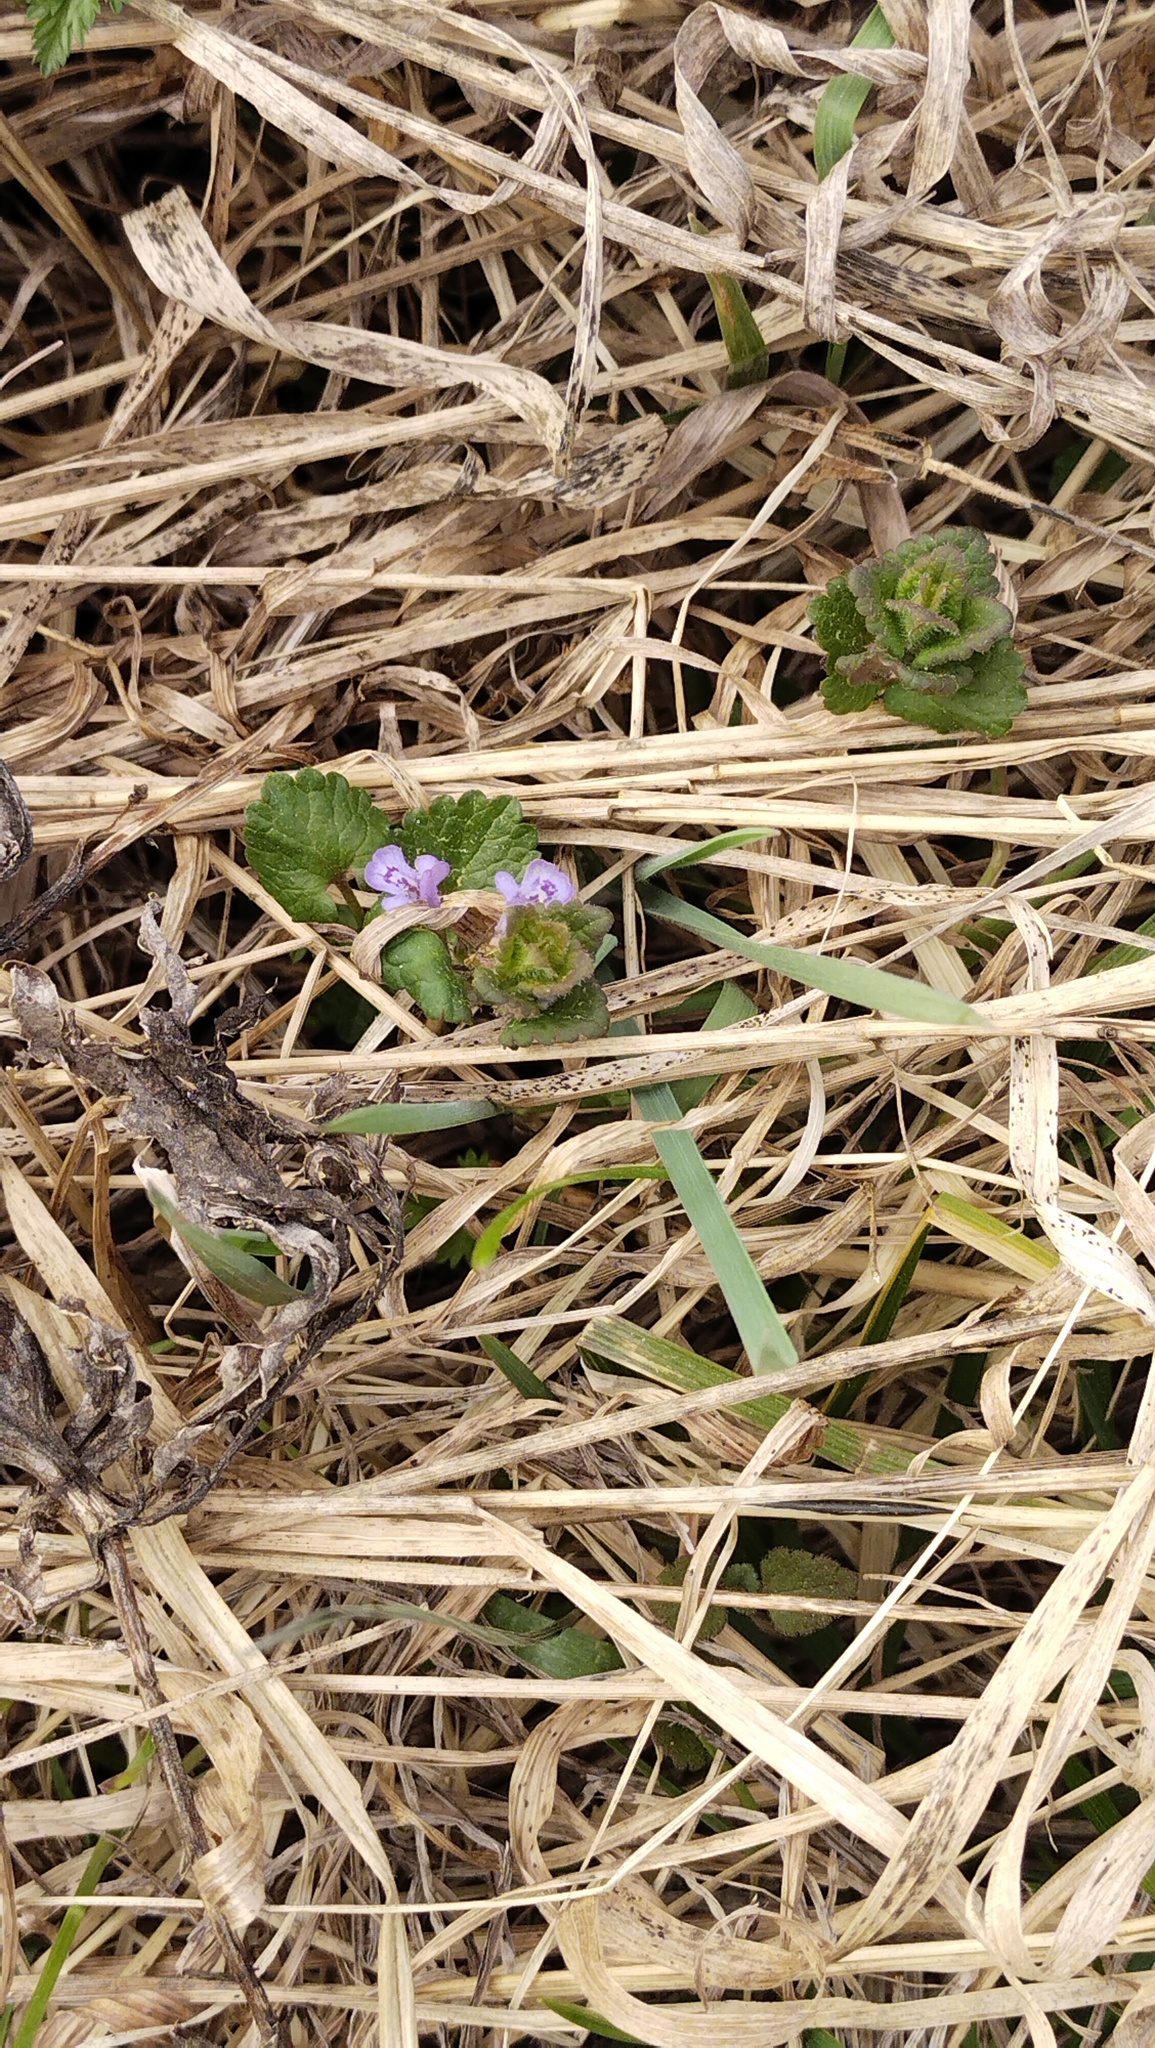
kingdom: Plantae
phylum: Tracheophyta
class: Magnoliopsida
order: Lamiales
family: Lamiaceae
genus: Glechoma
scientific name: Glechoma hederacea
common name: Ground ivy
